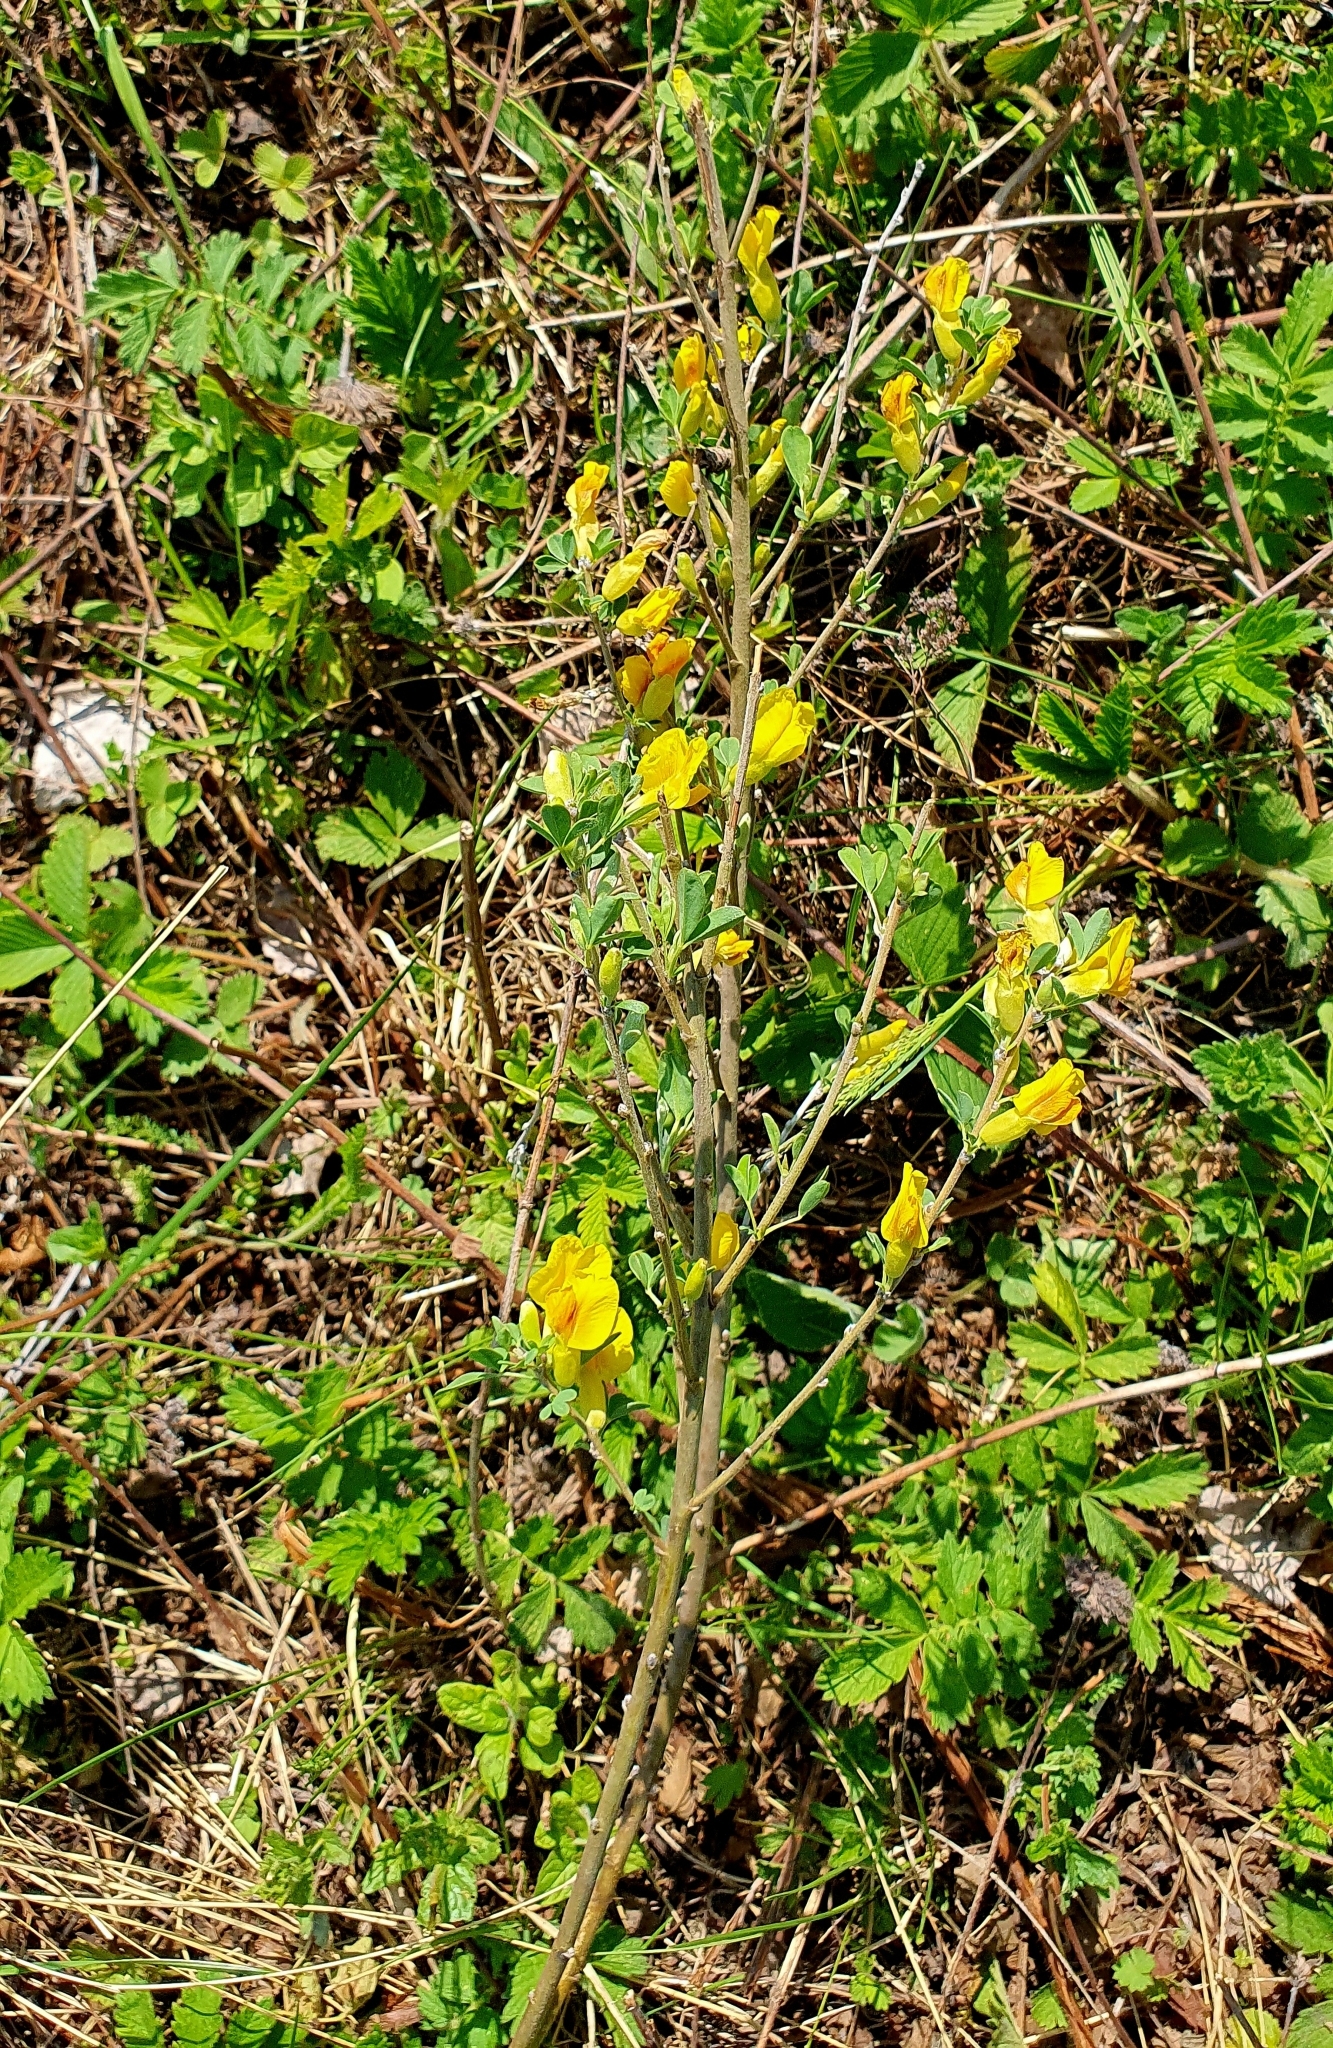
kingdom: Plantae
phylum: Tracheophyta
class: Magnoliopsida
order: Fabales
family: Fabaceae
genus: Chamaecytisus
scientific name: Chamaecytisus ruthenicus
